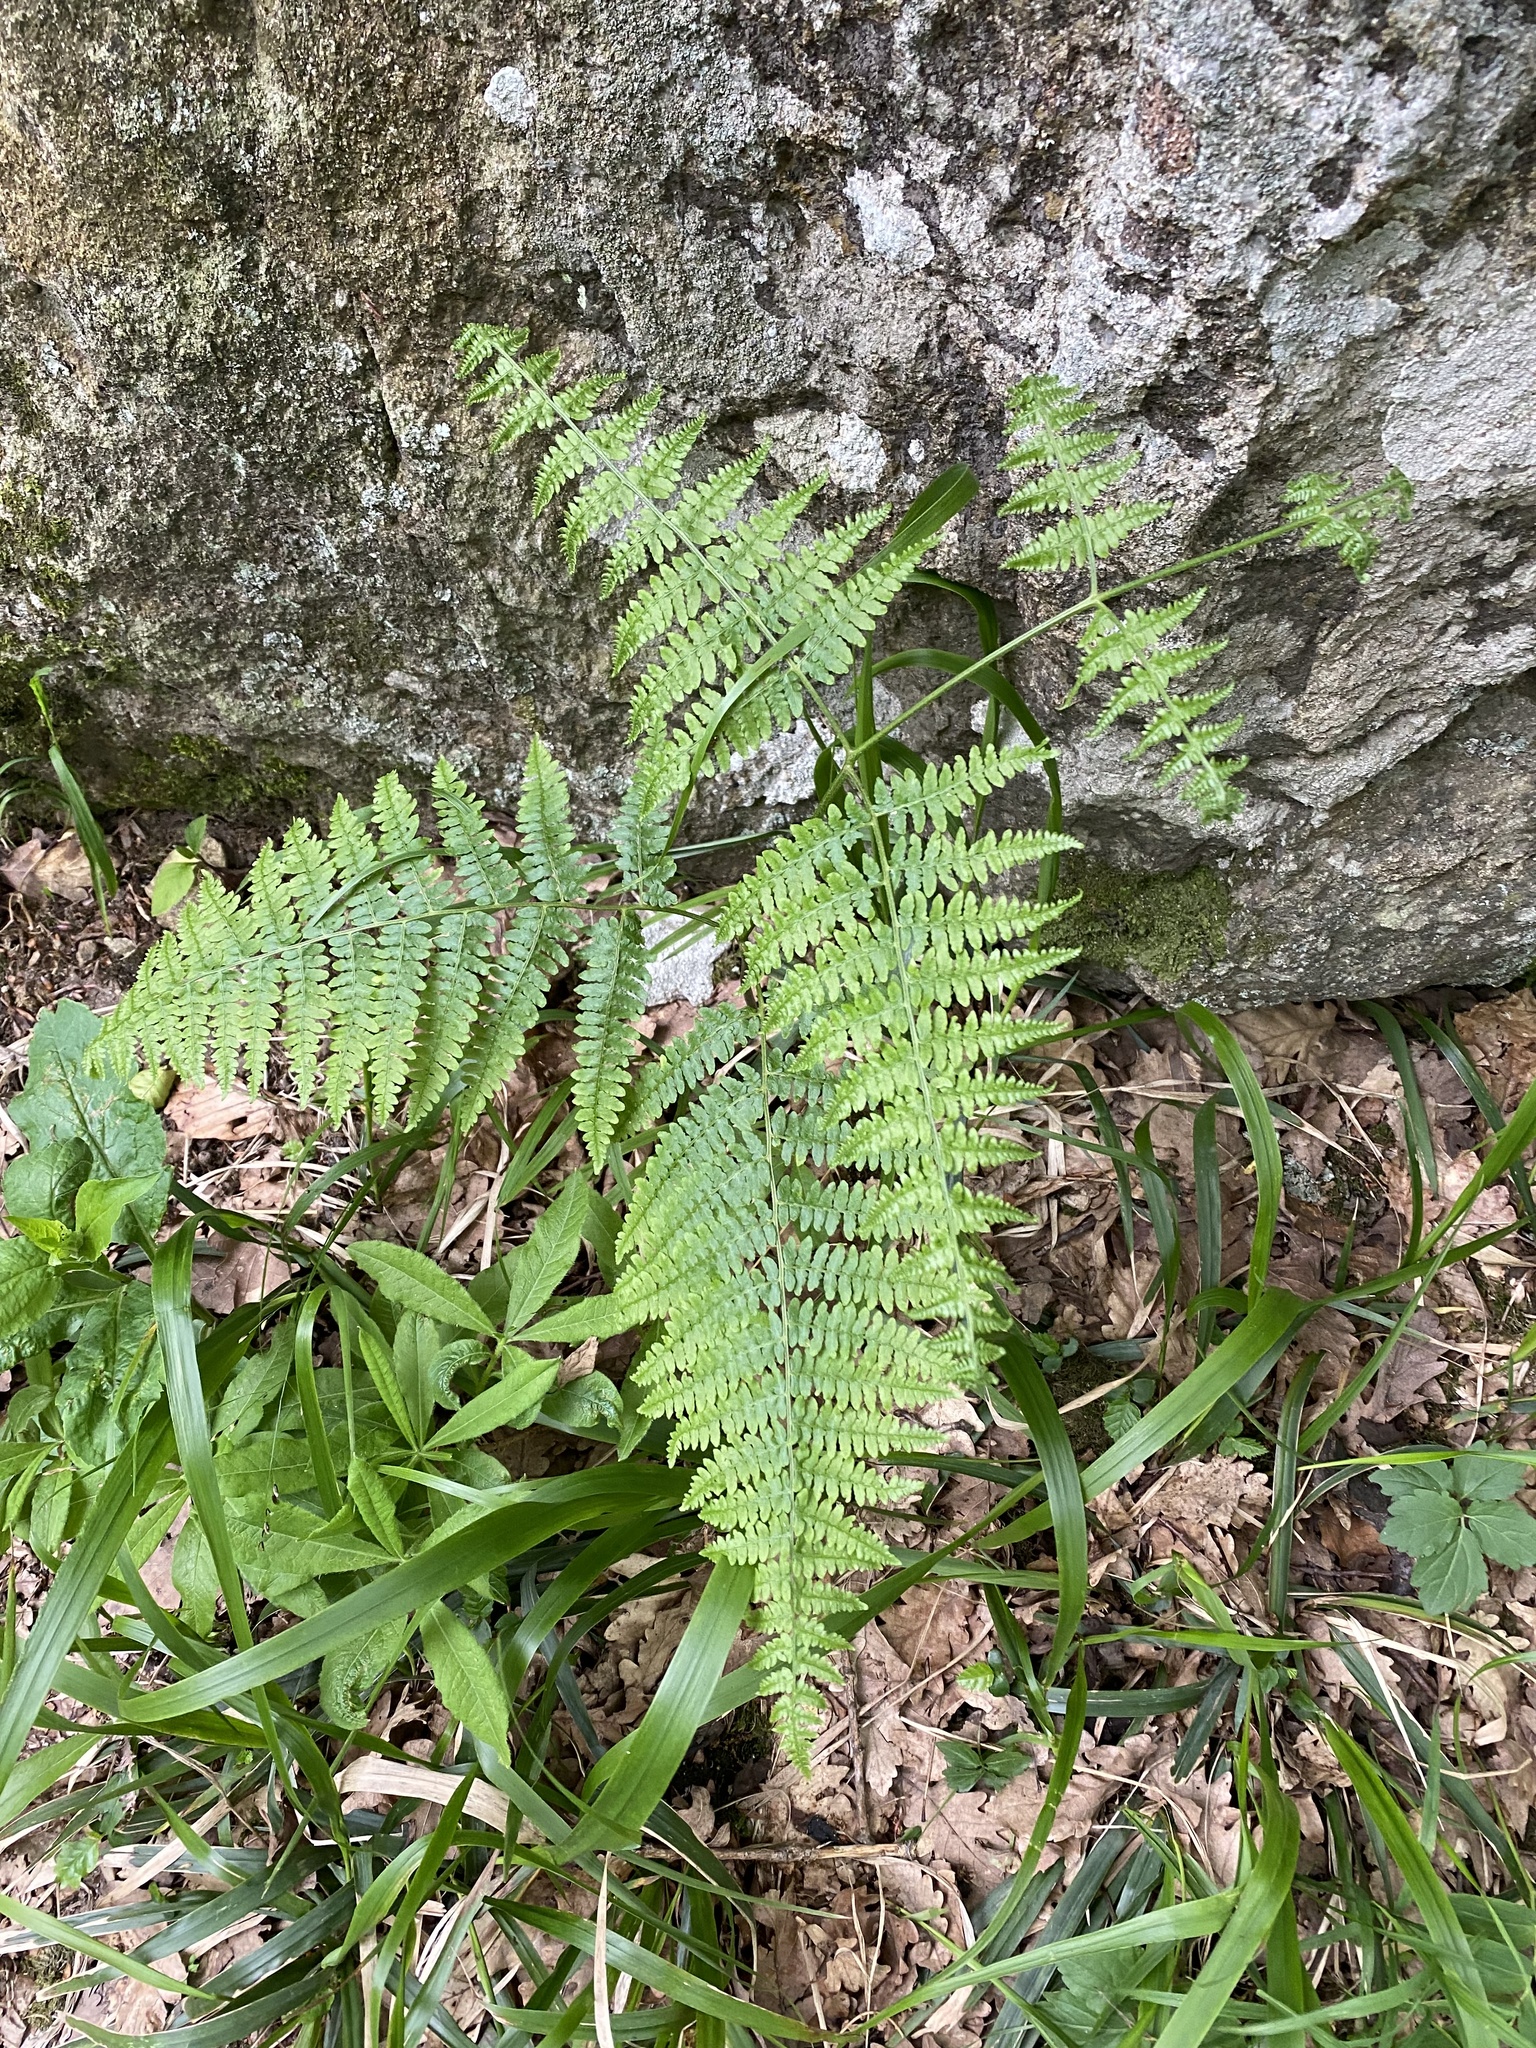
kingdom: Plantae
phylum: Tracheophyta
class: Polypodiopsida
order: Polypodiales
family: Dennstaedtiaceae
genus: Pteridium
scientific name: Pteridium tauricum
